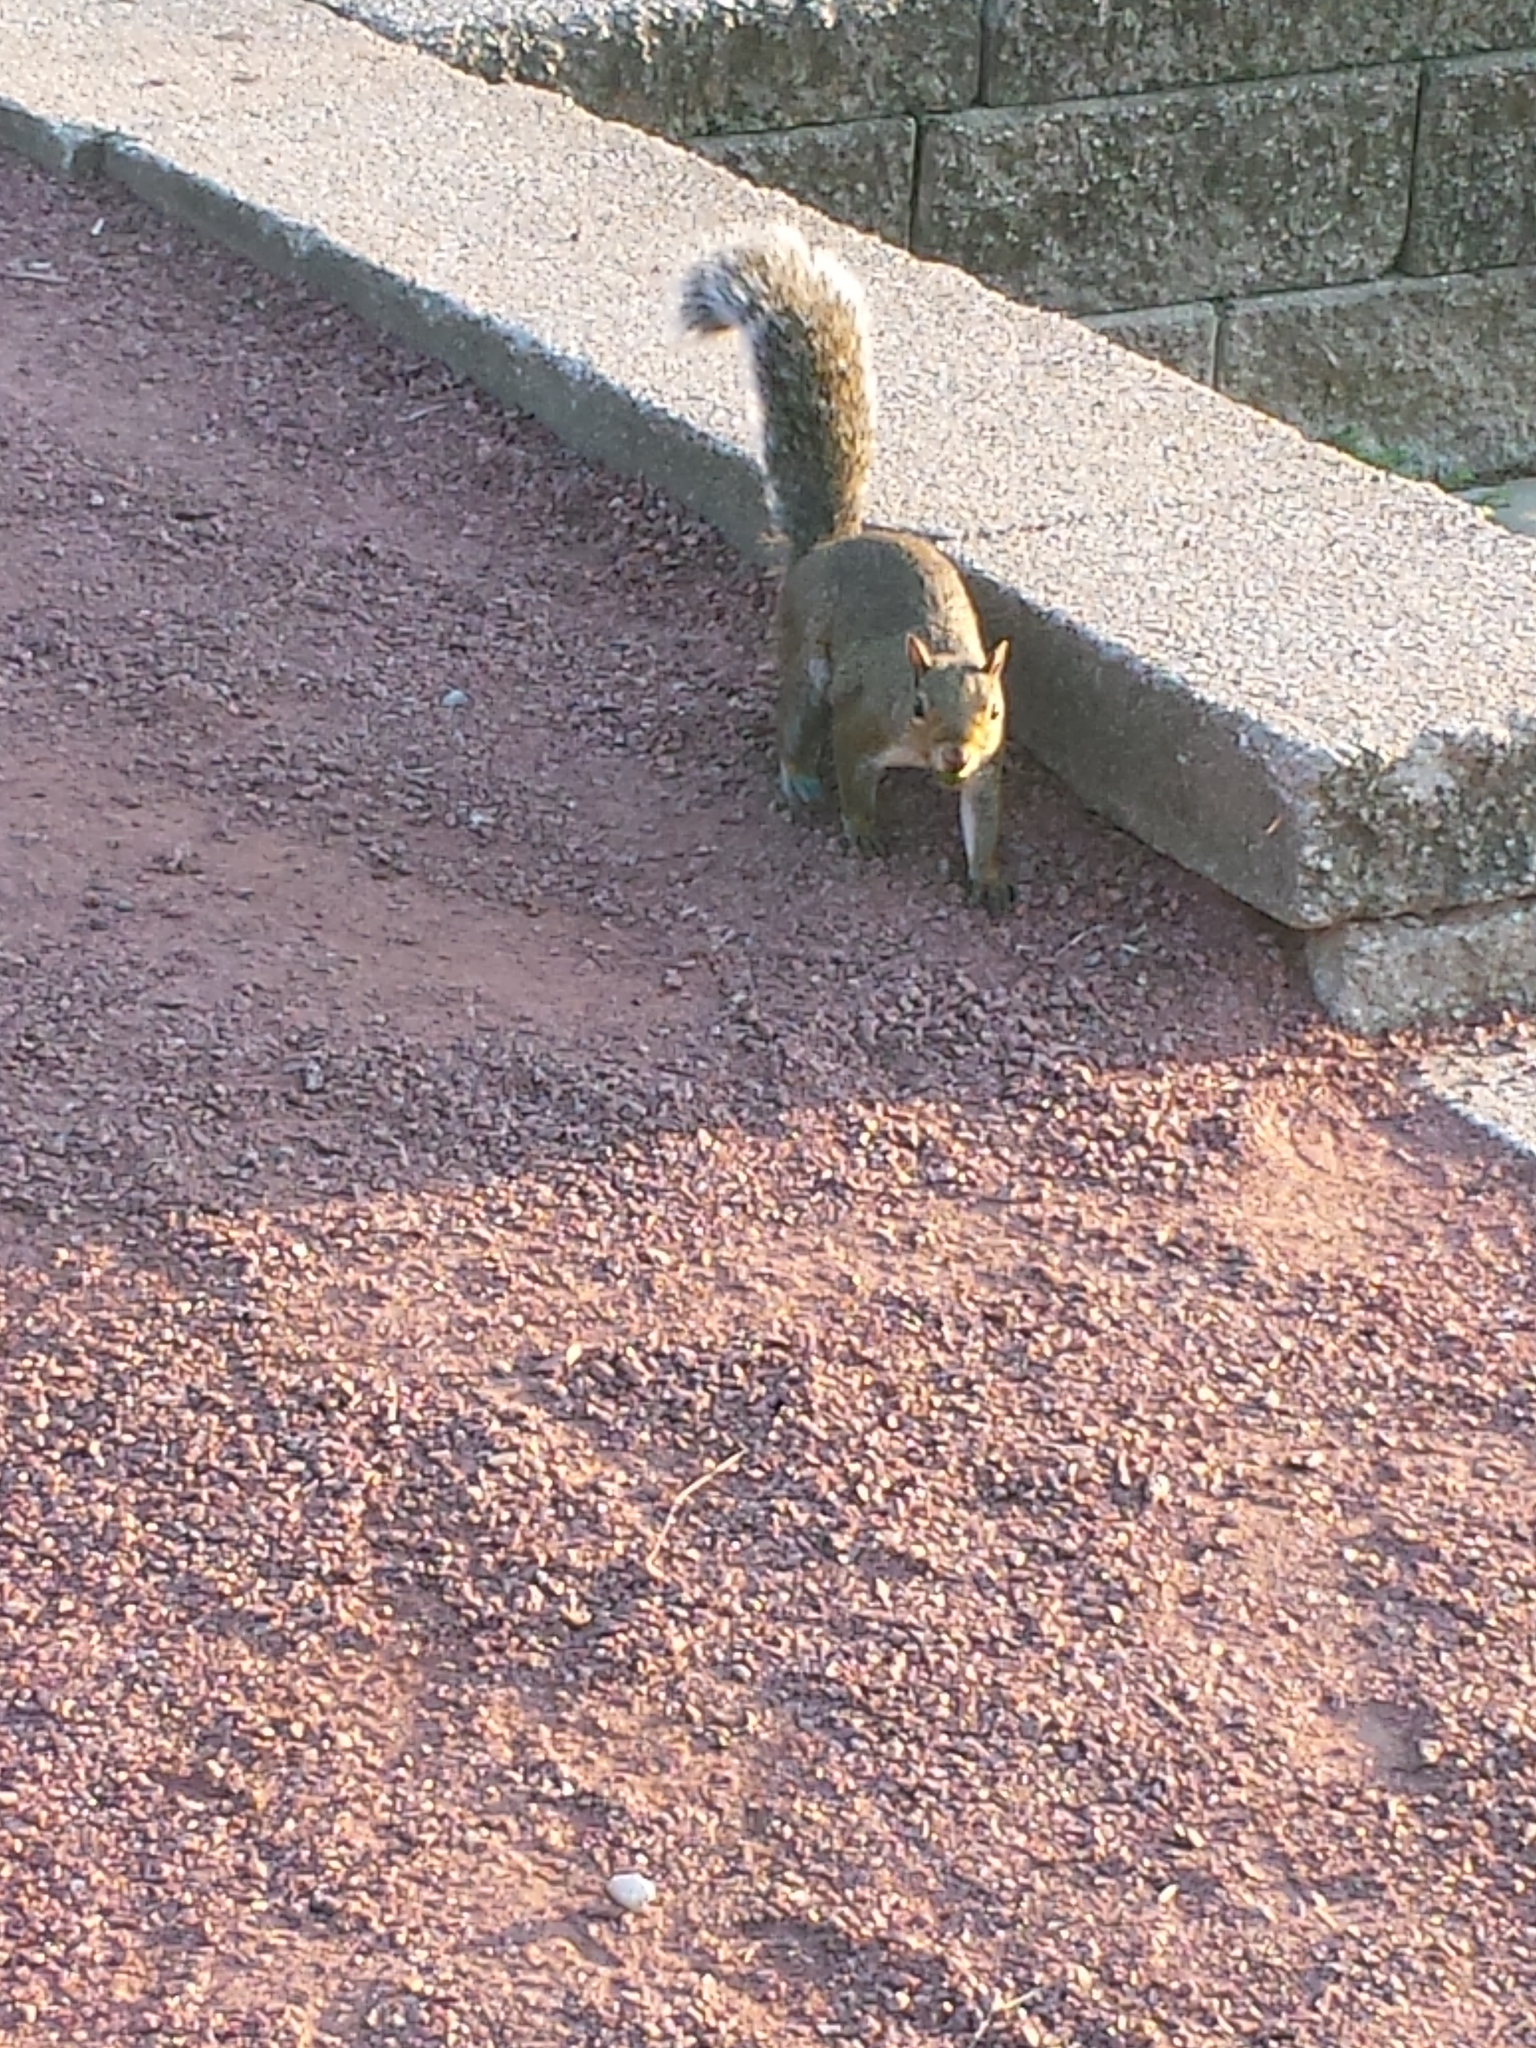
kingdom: Animalia
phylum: Chordata
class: Mammalia
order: Rodentia
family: Sciuridae
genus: Sciurus
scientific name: Sciurus carolinensis
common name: Eastern gray squirrel
